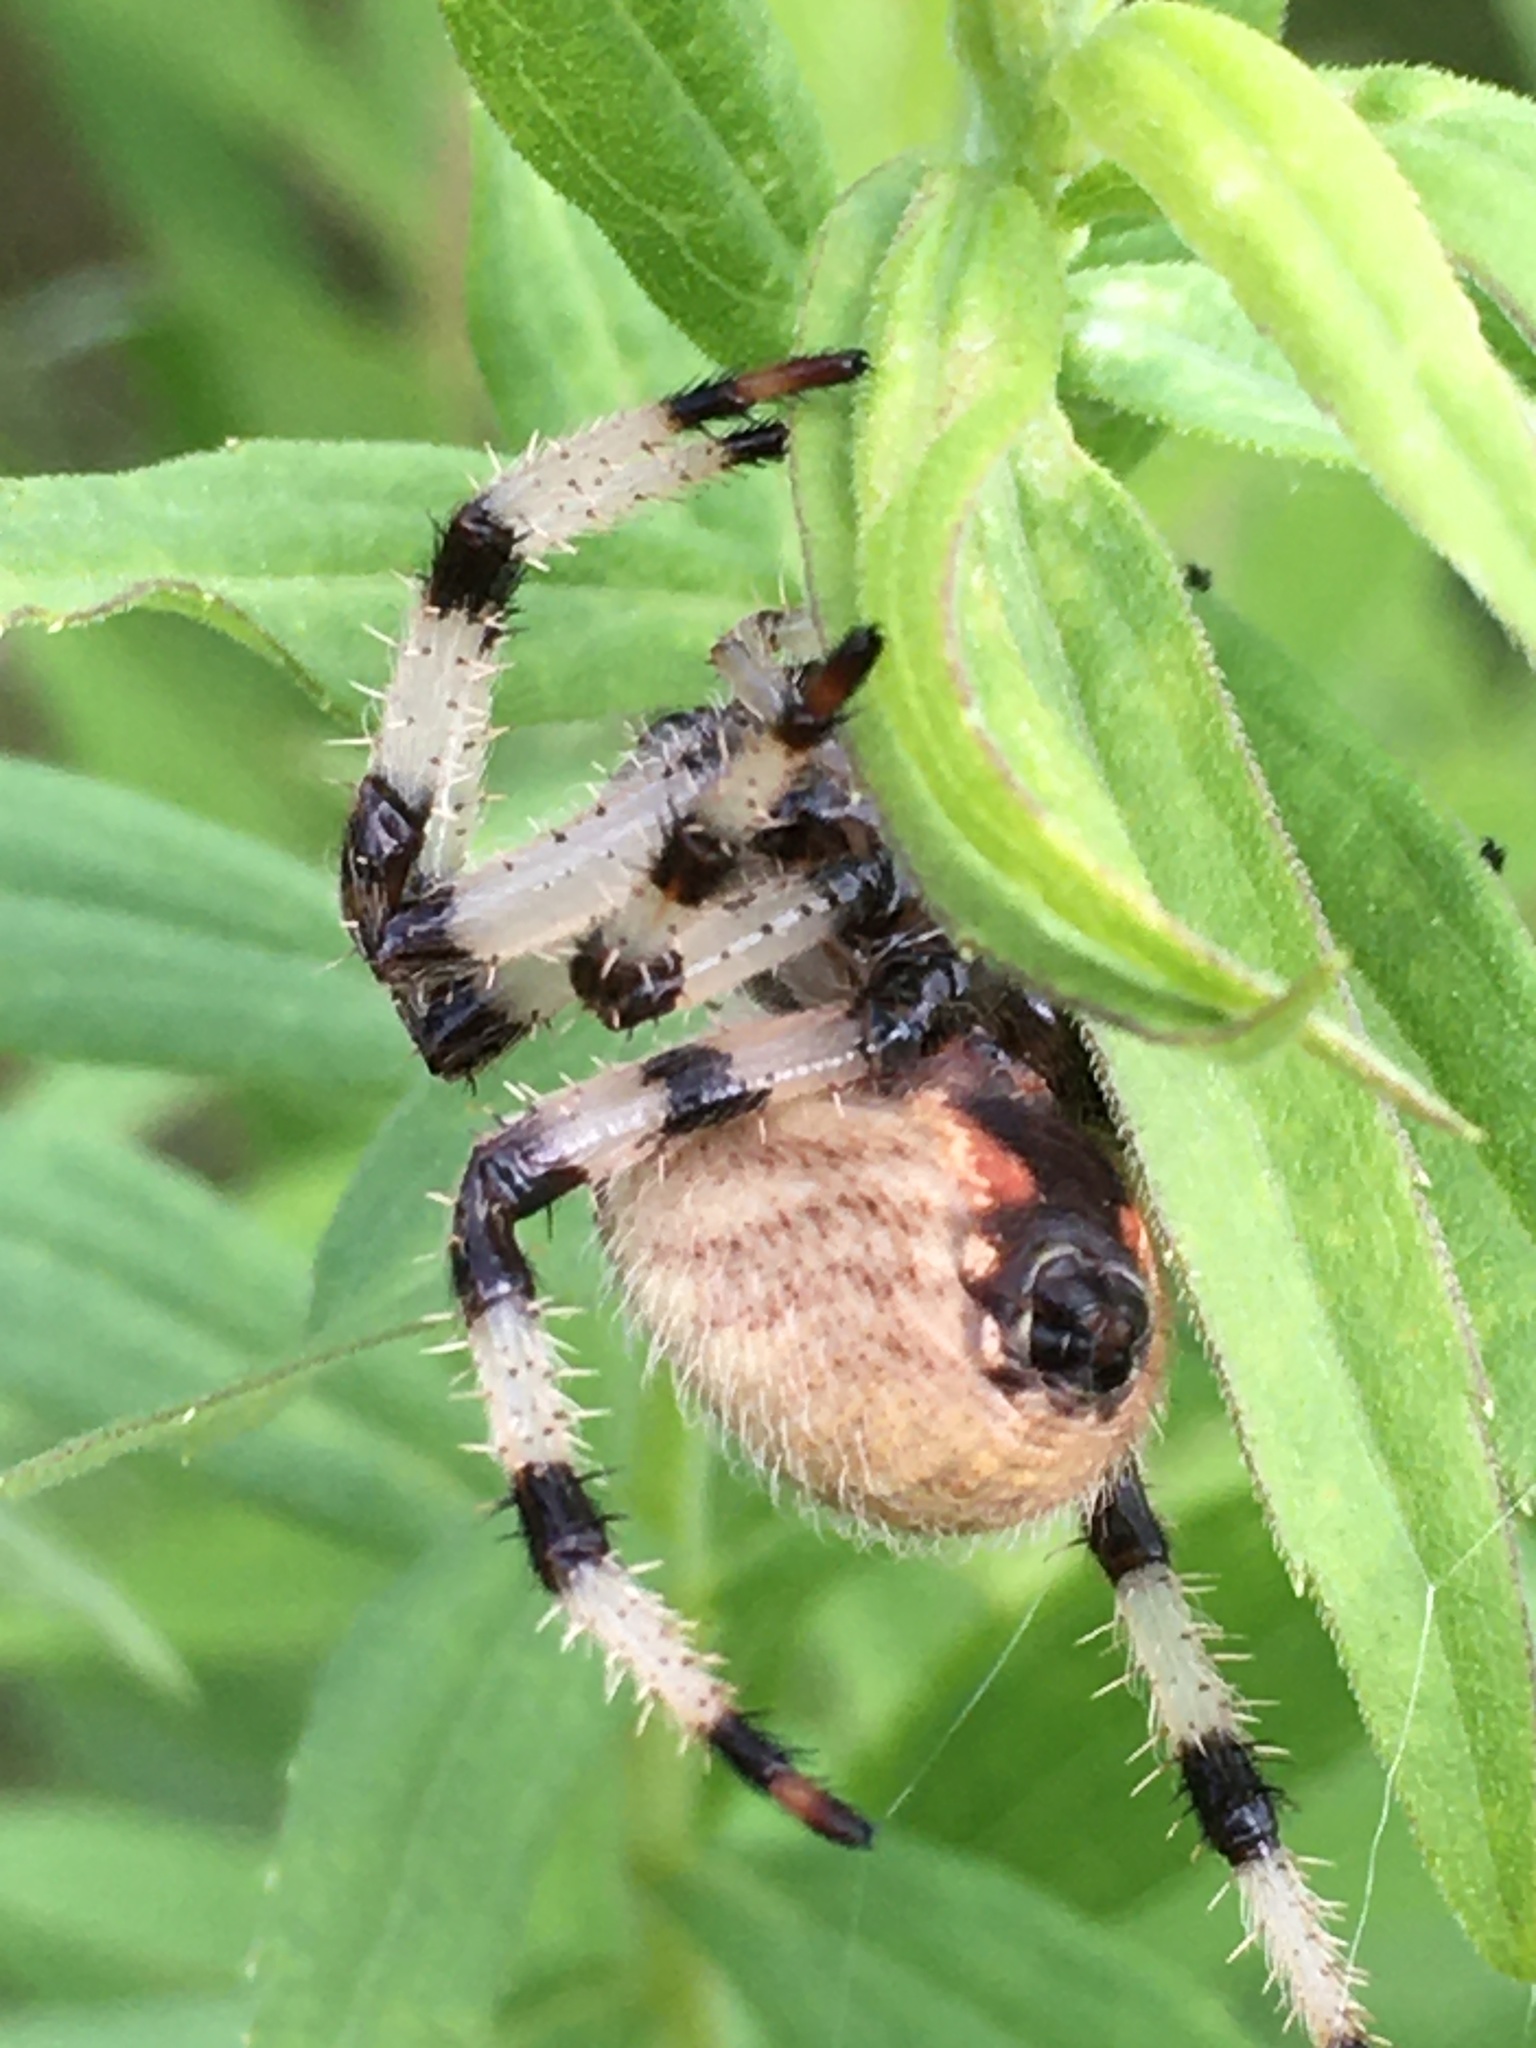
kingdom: Animalia
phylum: Arthropoda
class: Arachnida
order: Araneae
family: Araneidae
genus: Araneus
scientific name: Araneus trifolium
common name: Shamrock orbweaver
